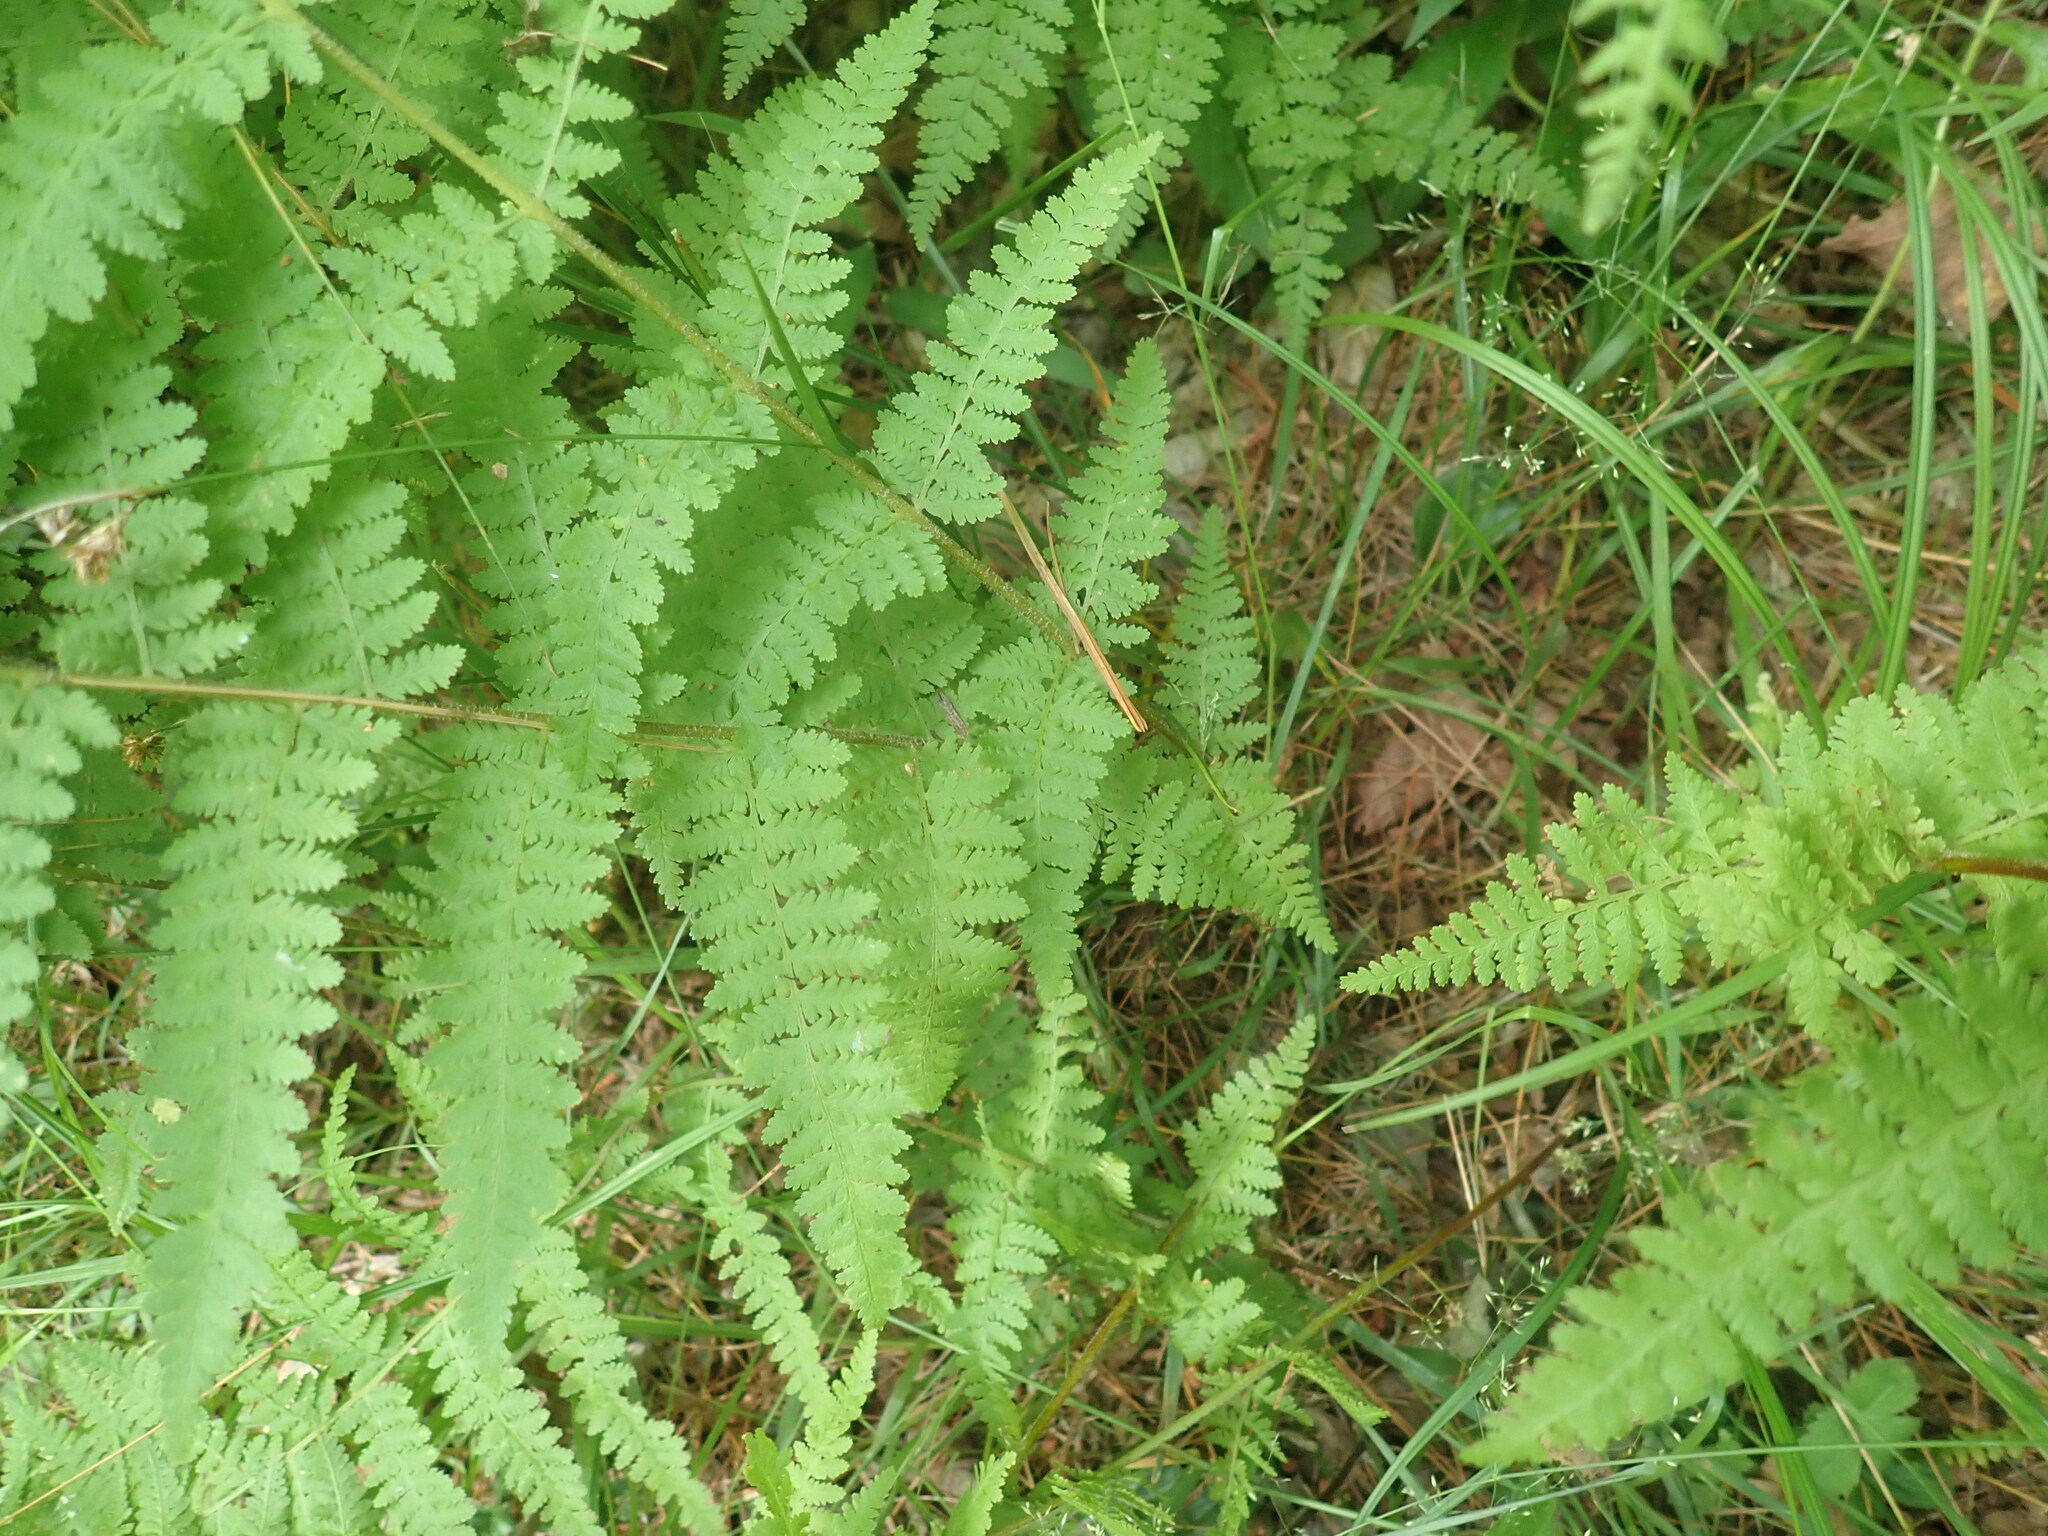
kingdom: Plantae
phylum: Tracheophyta
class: Polypodiopsida
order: Polypodiales
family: Dennstaedtiaceae
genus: Sitobolium
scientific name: Sitobolium punctilobum
